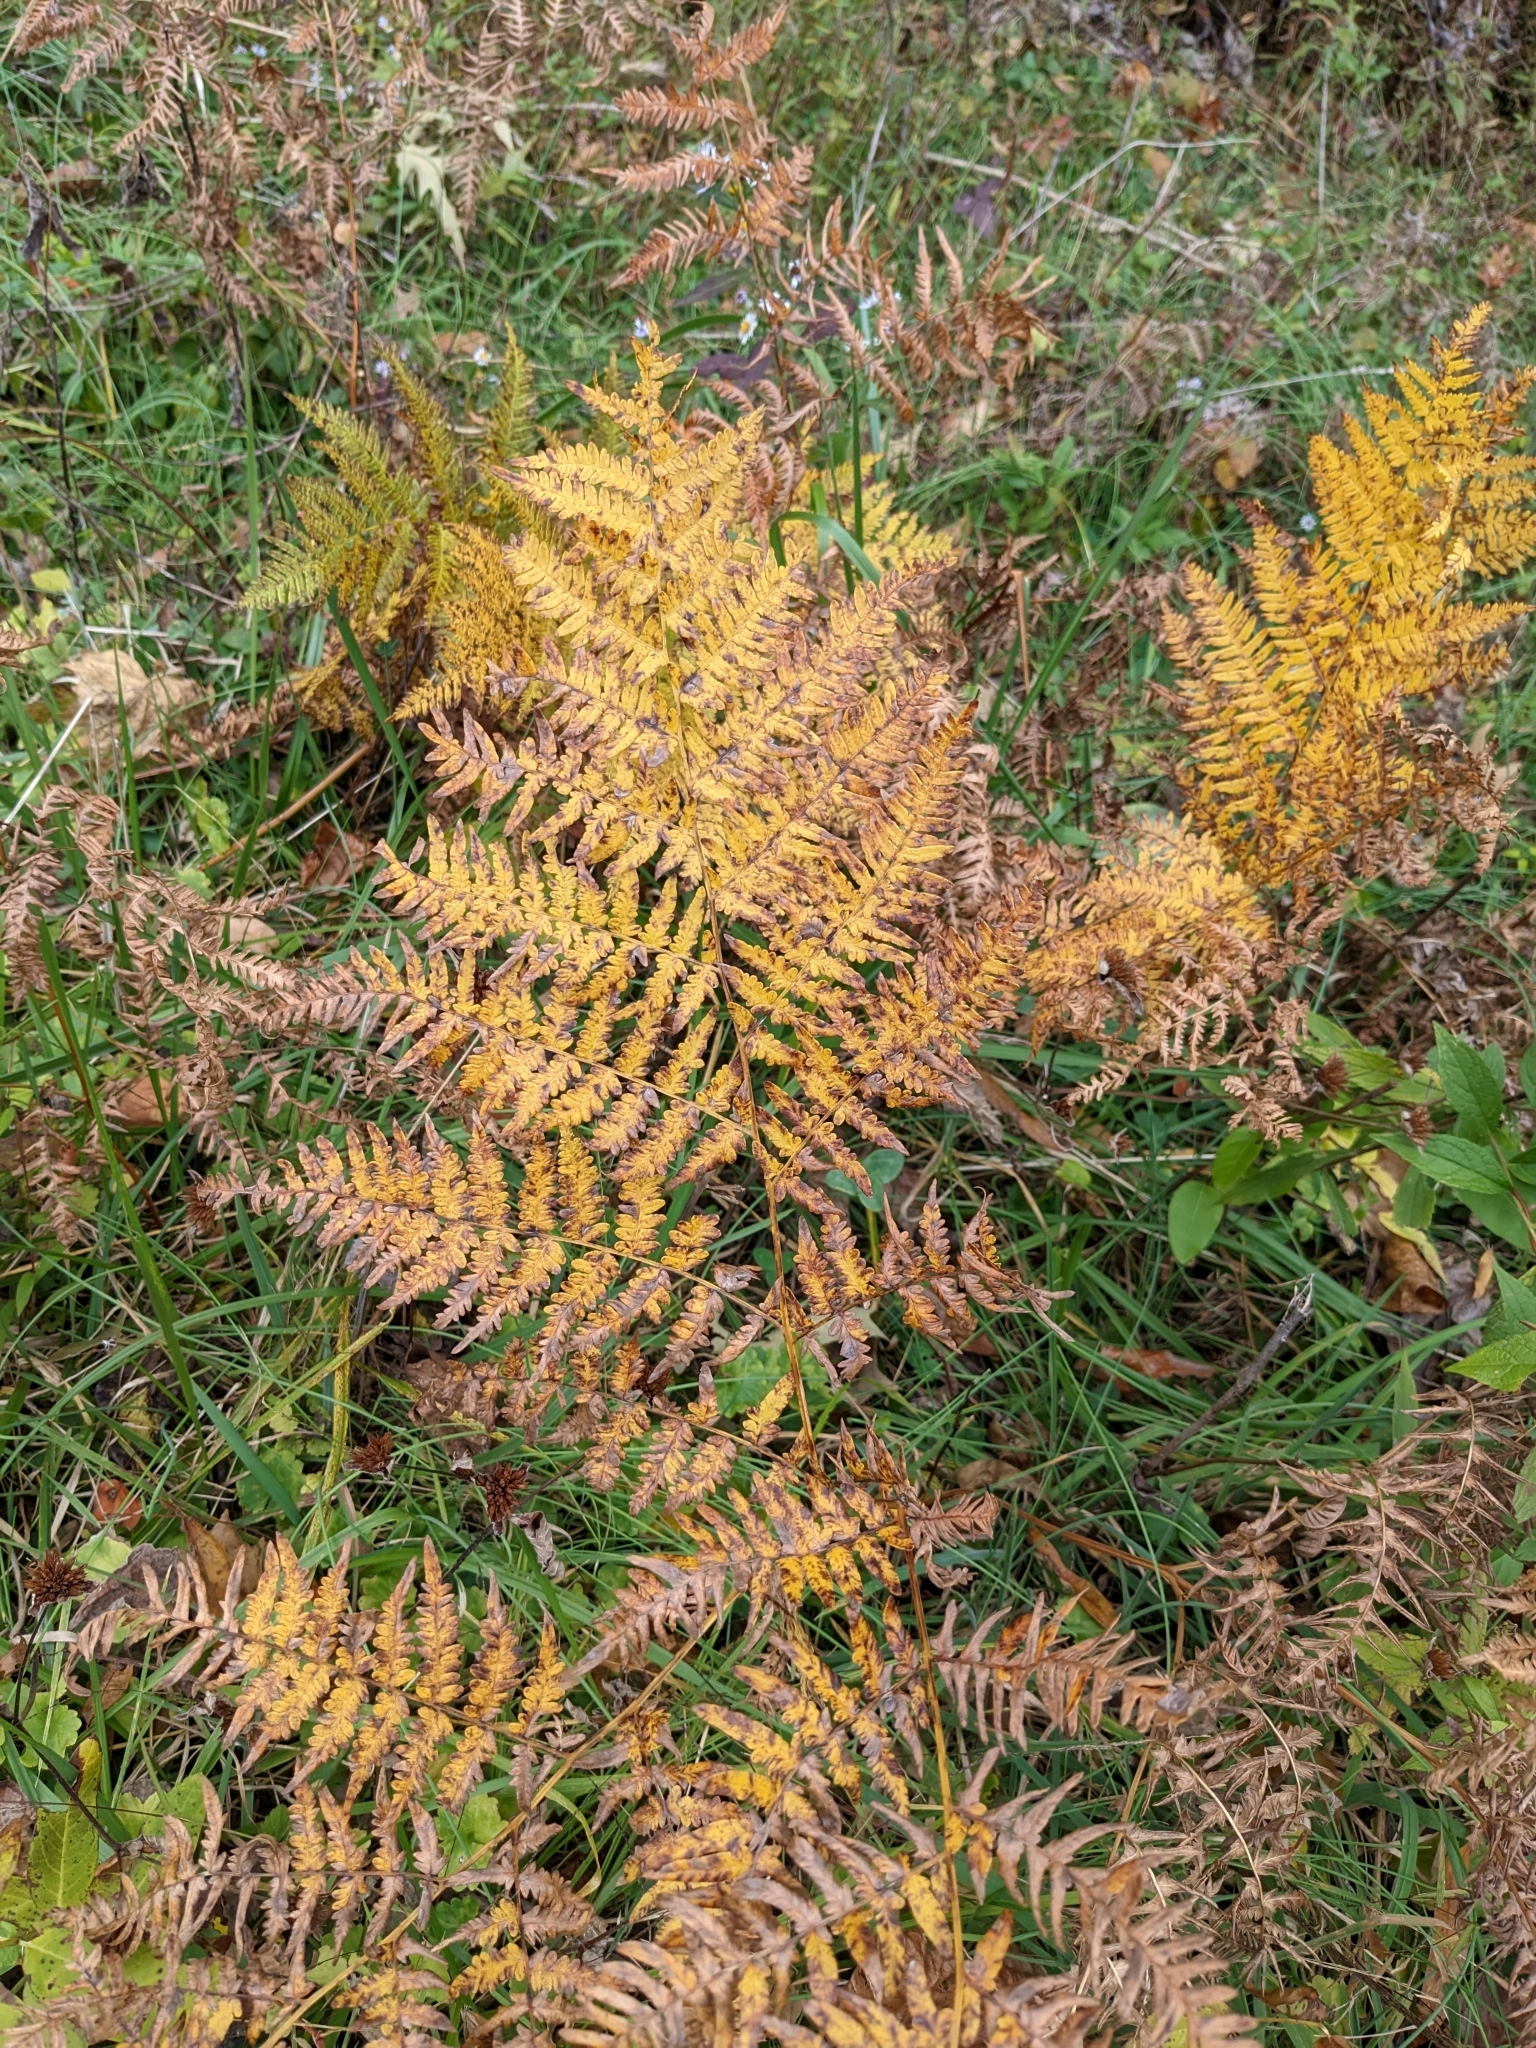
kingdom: Plantae
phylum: Tracheophyta
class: Polypodiopsida
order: Polypodiales
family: Dennstaedtiaceae
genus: Pteridium
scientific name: Pteridium aquilinum
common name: Bracken
